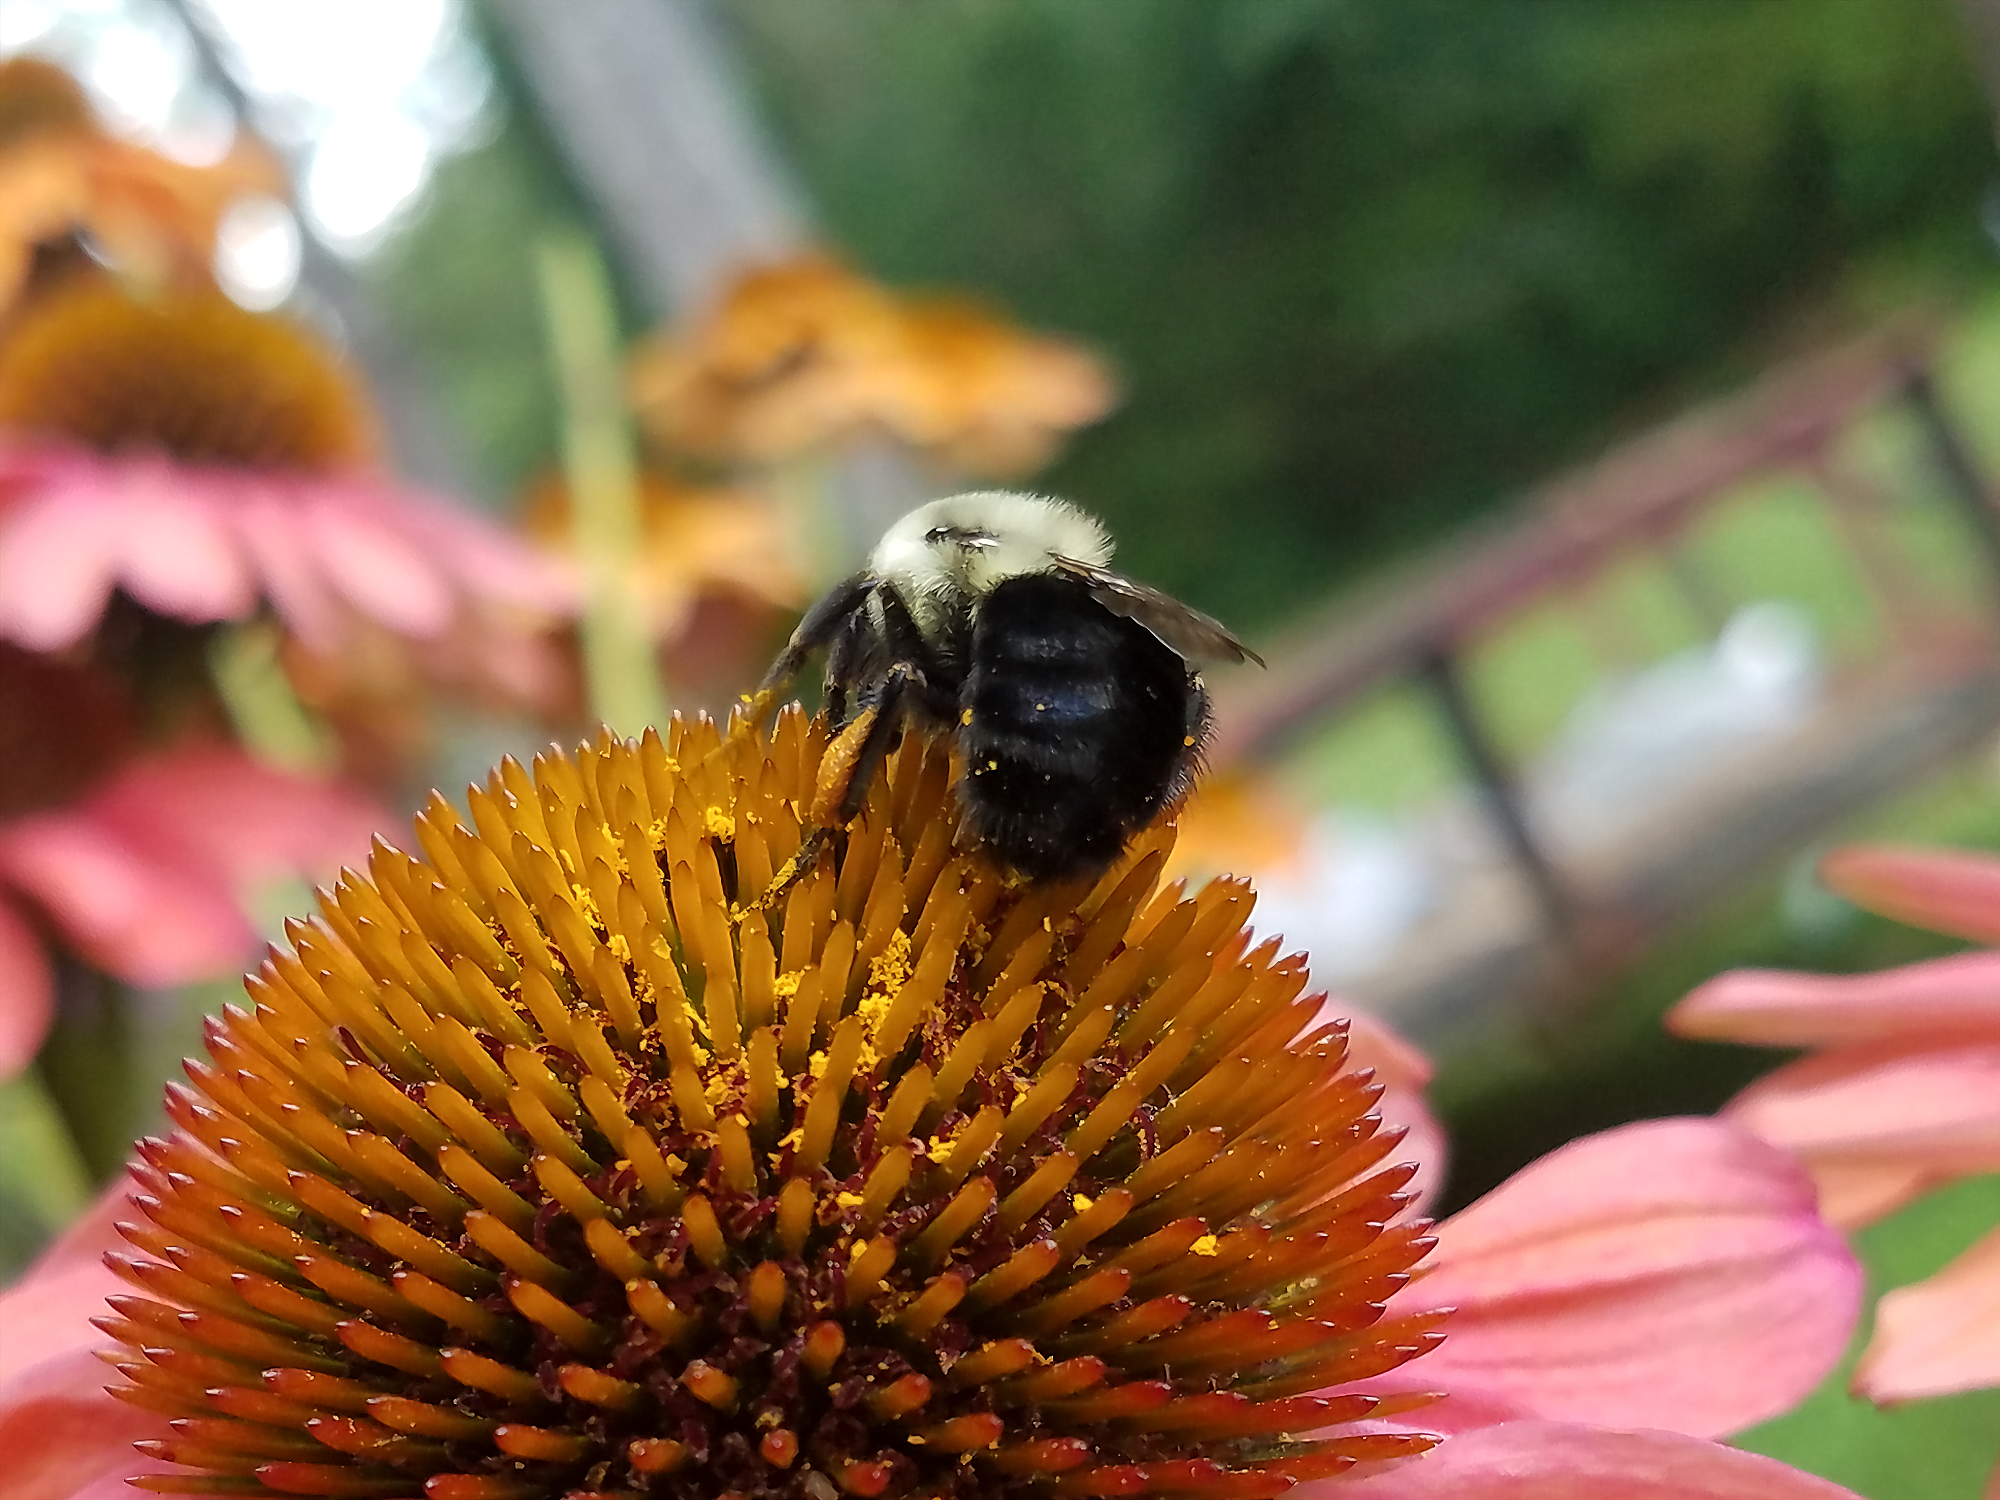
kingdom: Animalia
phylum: Arthropoda
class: Insecta
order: Hymenoptera
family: Apidae
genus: Bombus
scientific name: Bombus impatiens
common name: Common eastern bumble bee
